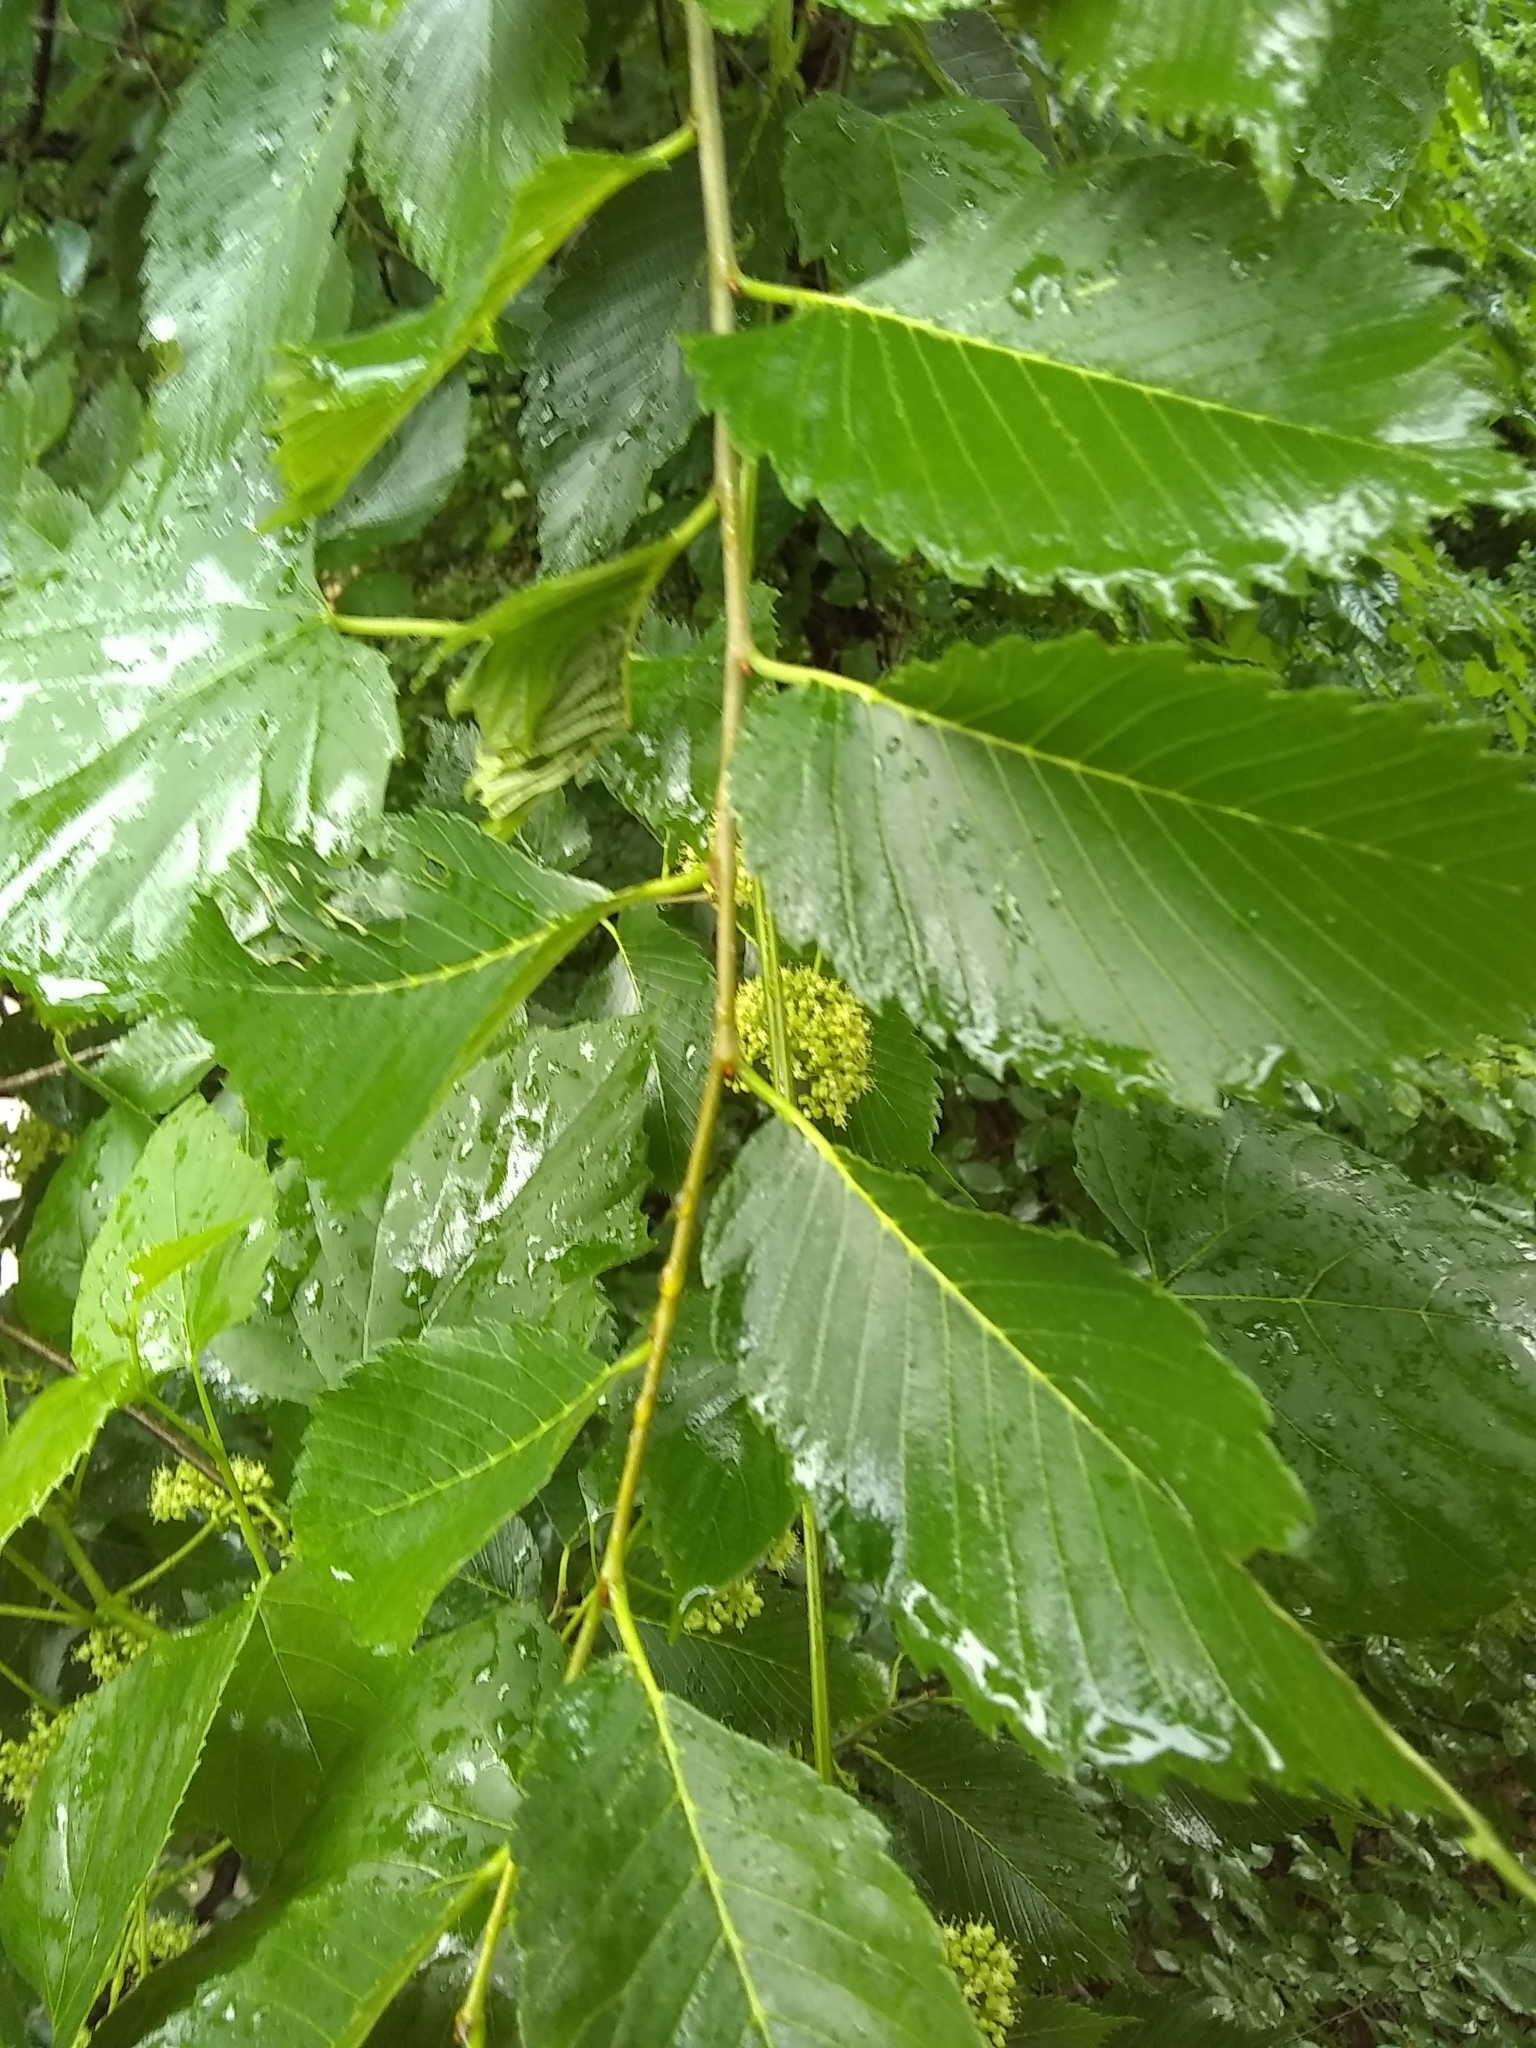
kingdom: Plantae
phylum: Tracheophyta
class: Magnoliopsida
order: Rosales
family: Ulmaceae
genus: Ulmus
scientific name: Ulmus americana
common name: American elm
